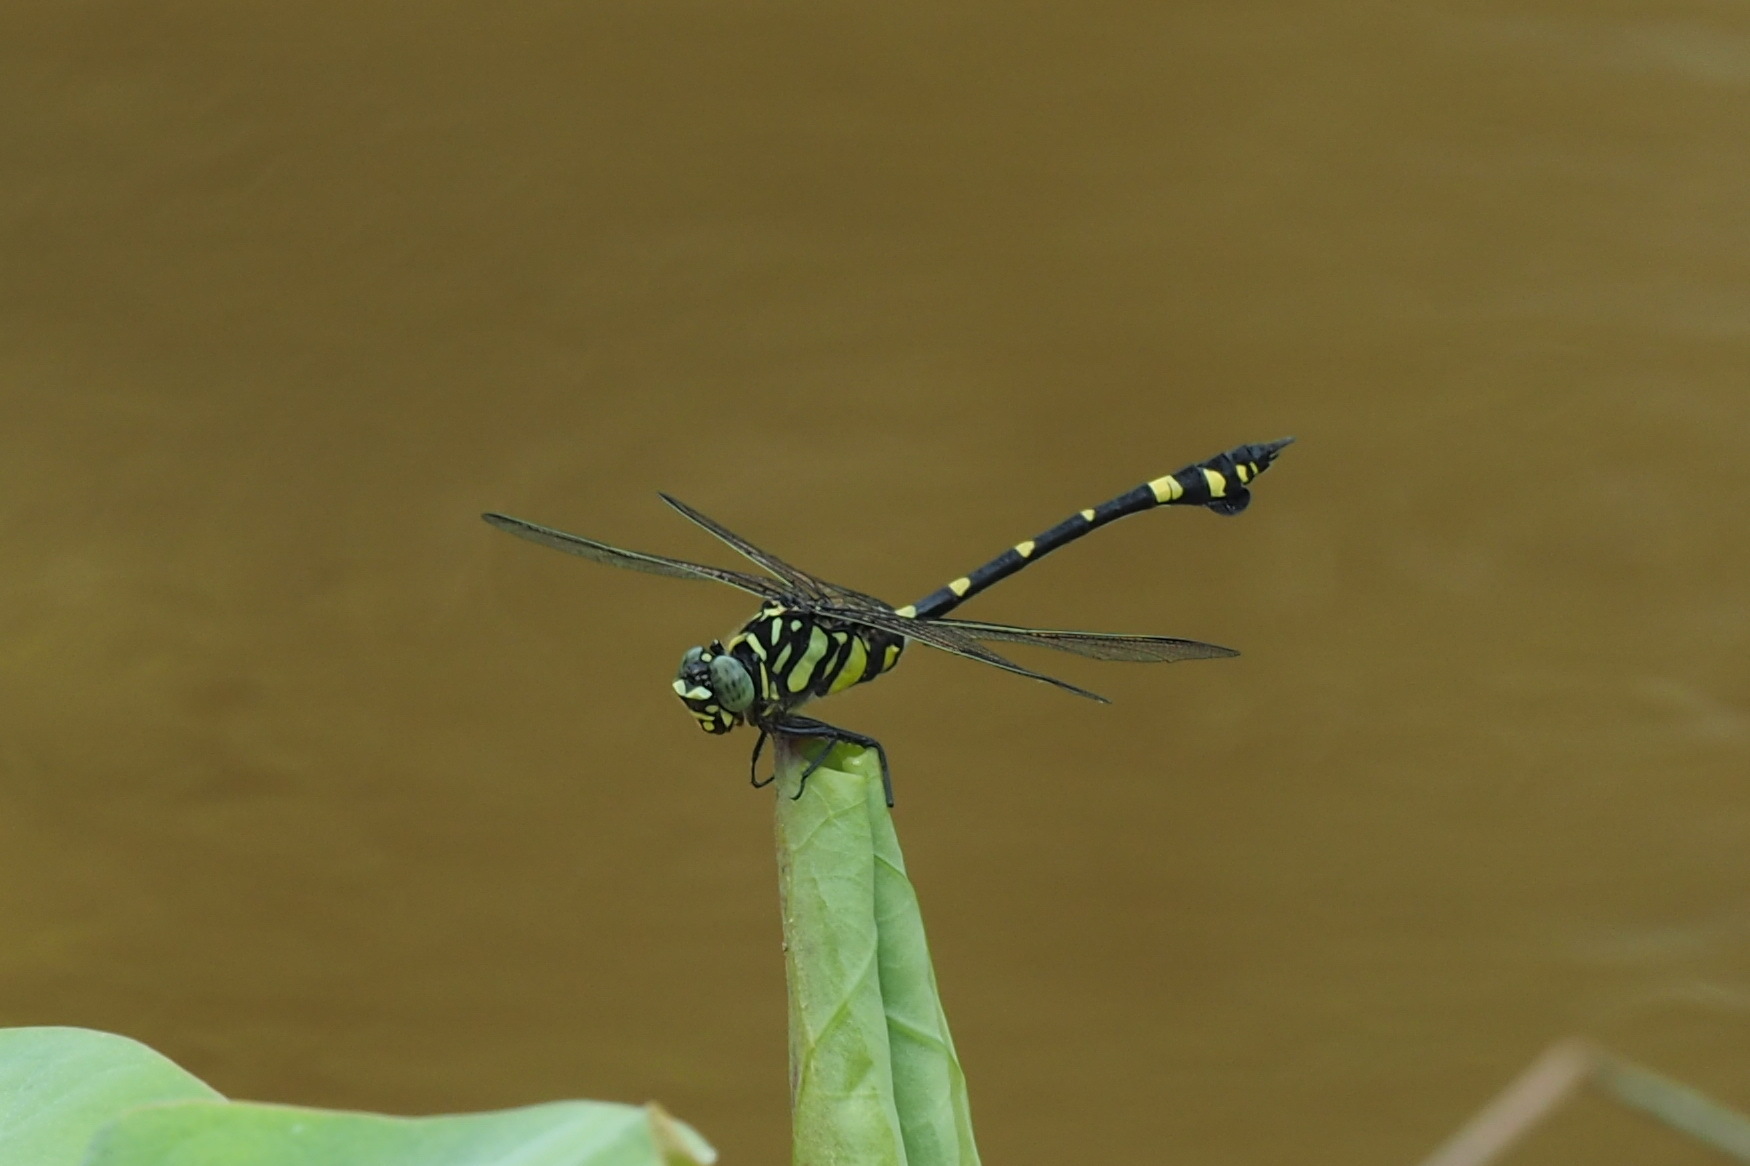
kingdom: Animalia
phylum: Arthropoda
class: Insecta
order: Odonata
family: Gomphidae
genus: Ictinogomphus
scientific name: Ictinogomphus rapax
